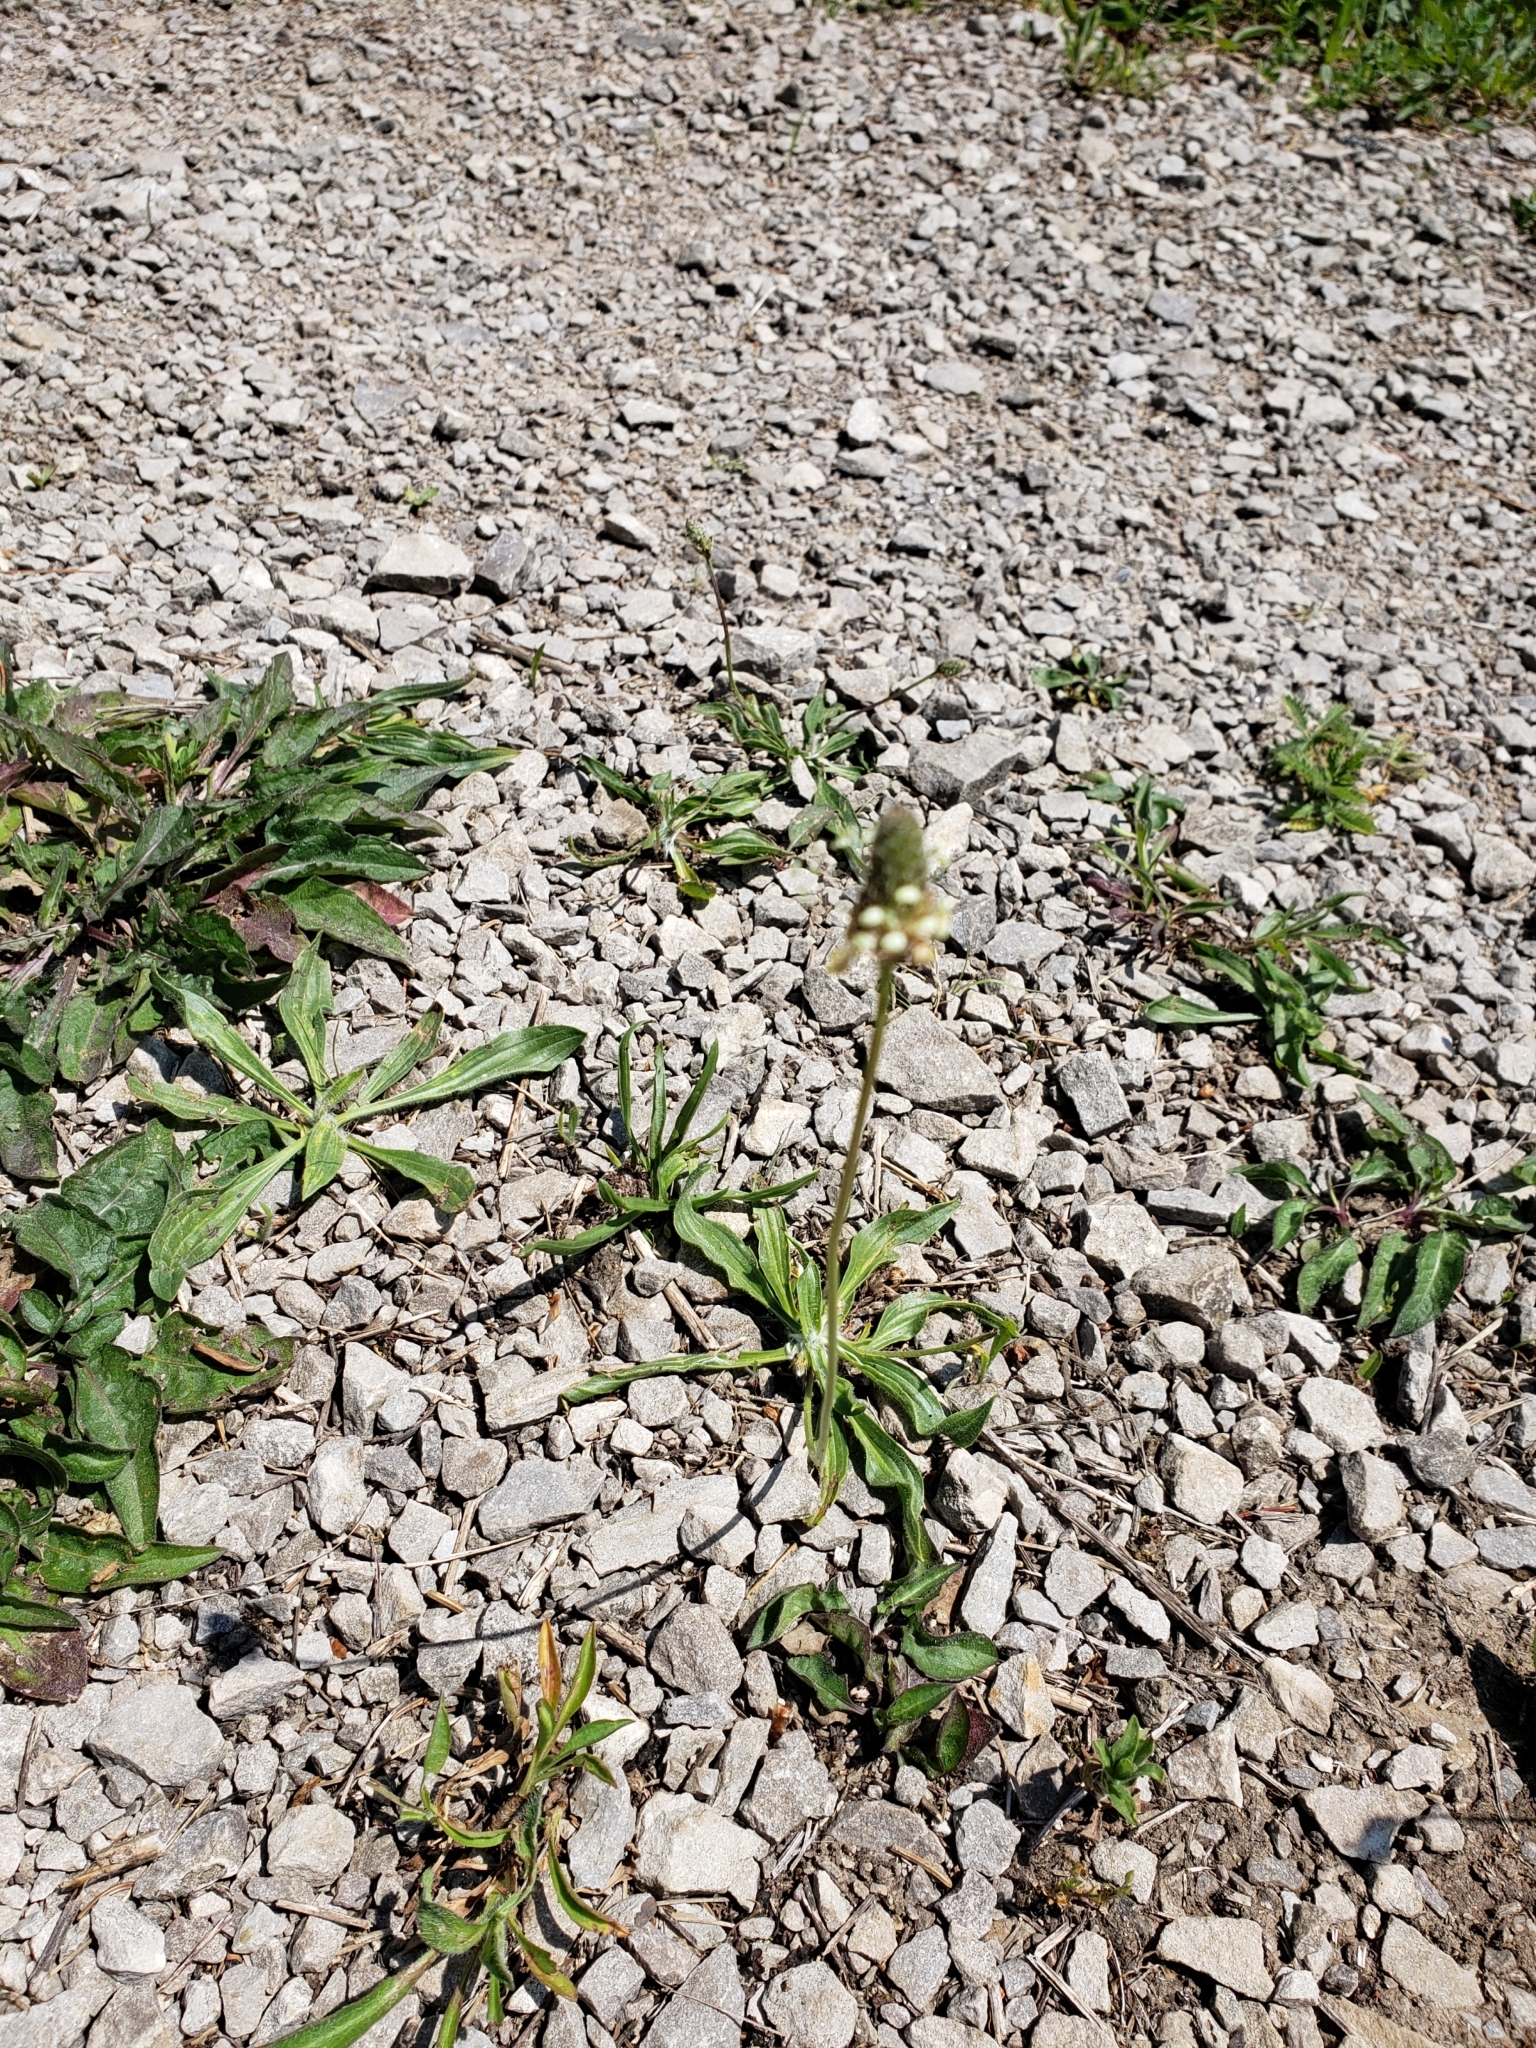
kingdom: Plantae
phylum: Tracheophyta
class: Magnoliopsida
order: Lamiales
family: Plantaginaceae
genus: Plantago
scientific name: Plantago lanceolata
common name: Ribwort plantain
